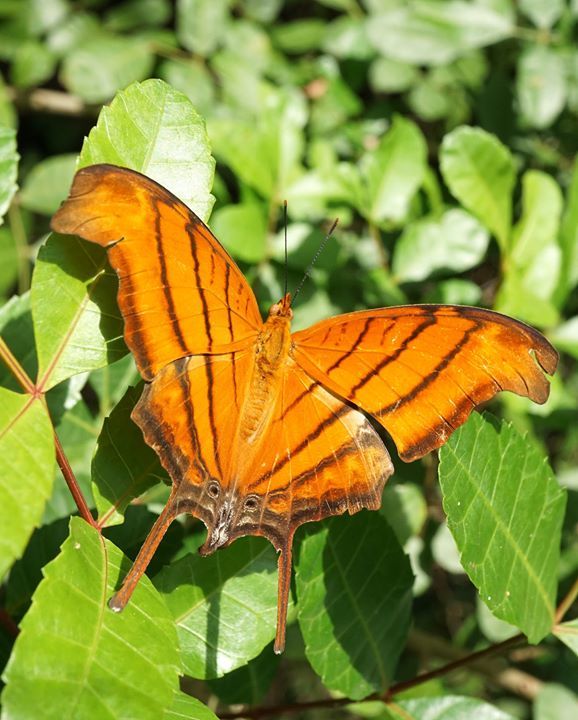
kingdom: Animalia
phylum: Arthropoda
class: Insecta
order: Lepidoptera
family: Nymphalidae
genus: Marpesia
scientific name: Marpesia petreus
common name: Red dagger wing
